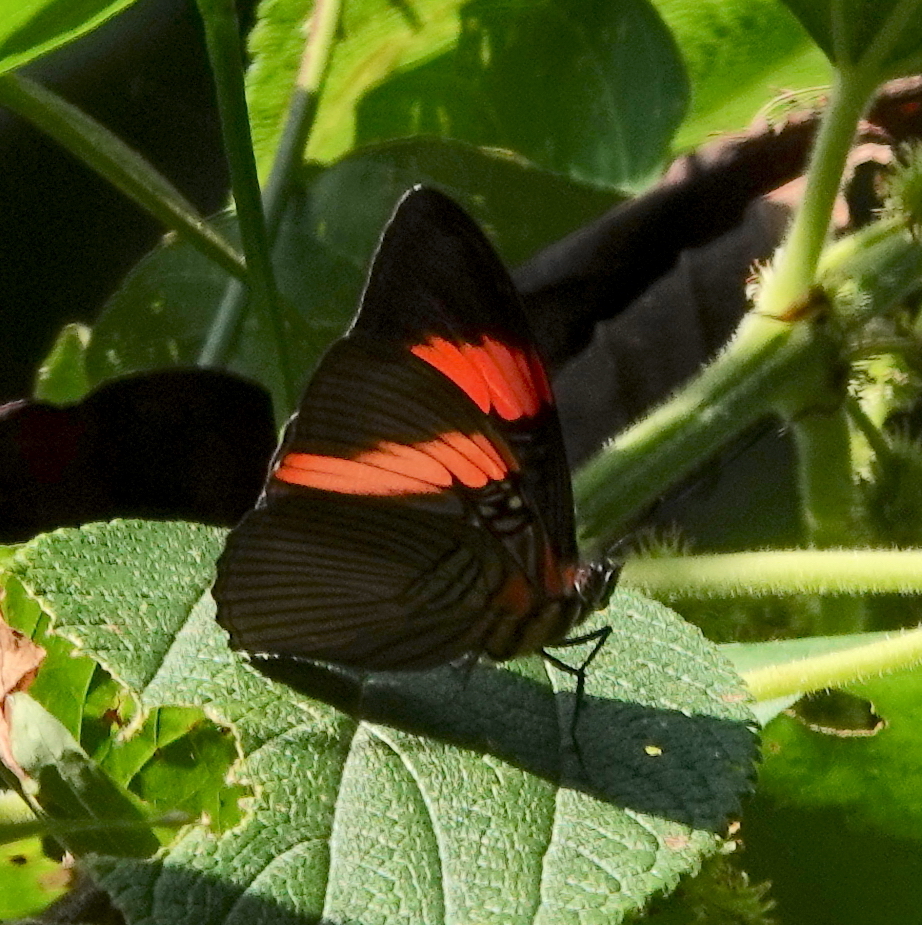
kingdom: Animalia
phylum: Arthropoda
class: Insecta
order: Lepidoptera
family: Nymphalidae
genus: Limenitis
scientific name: Limenitis isis
